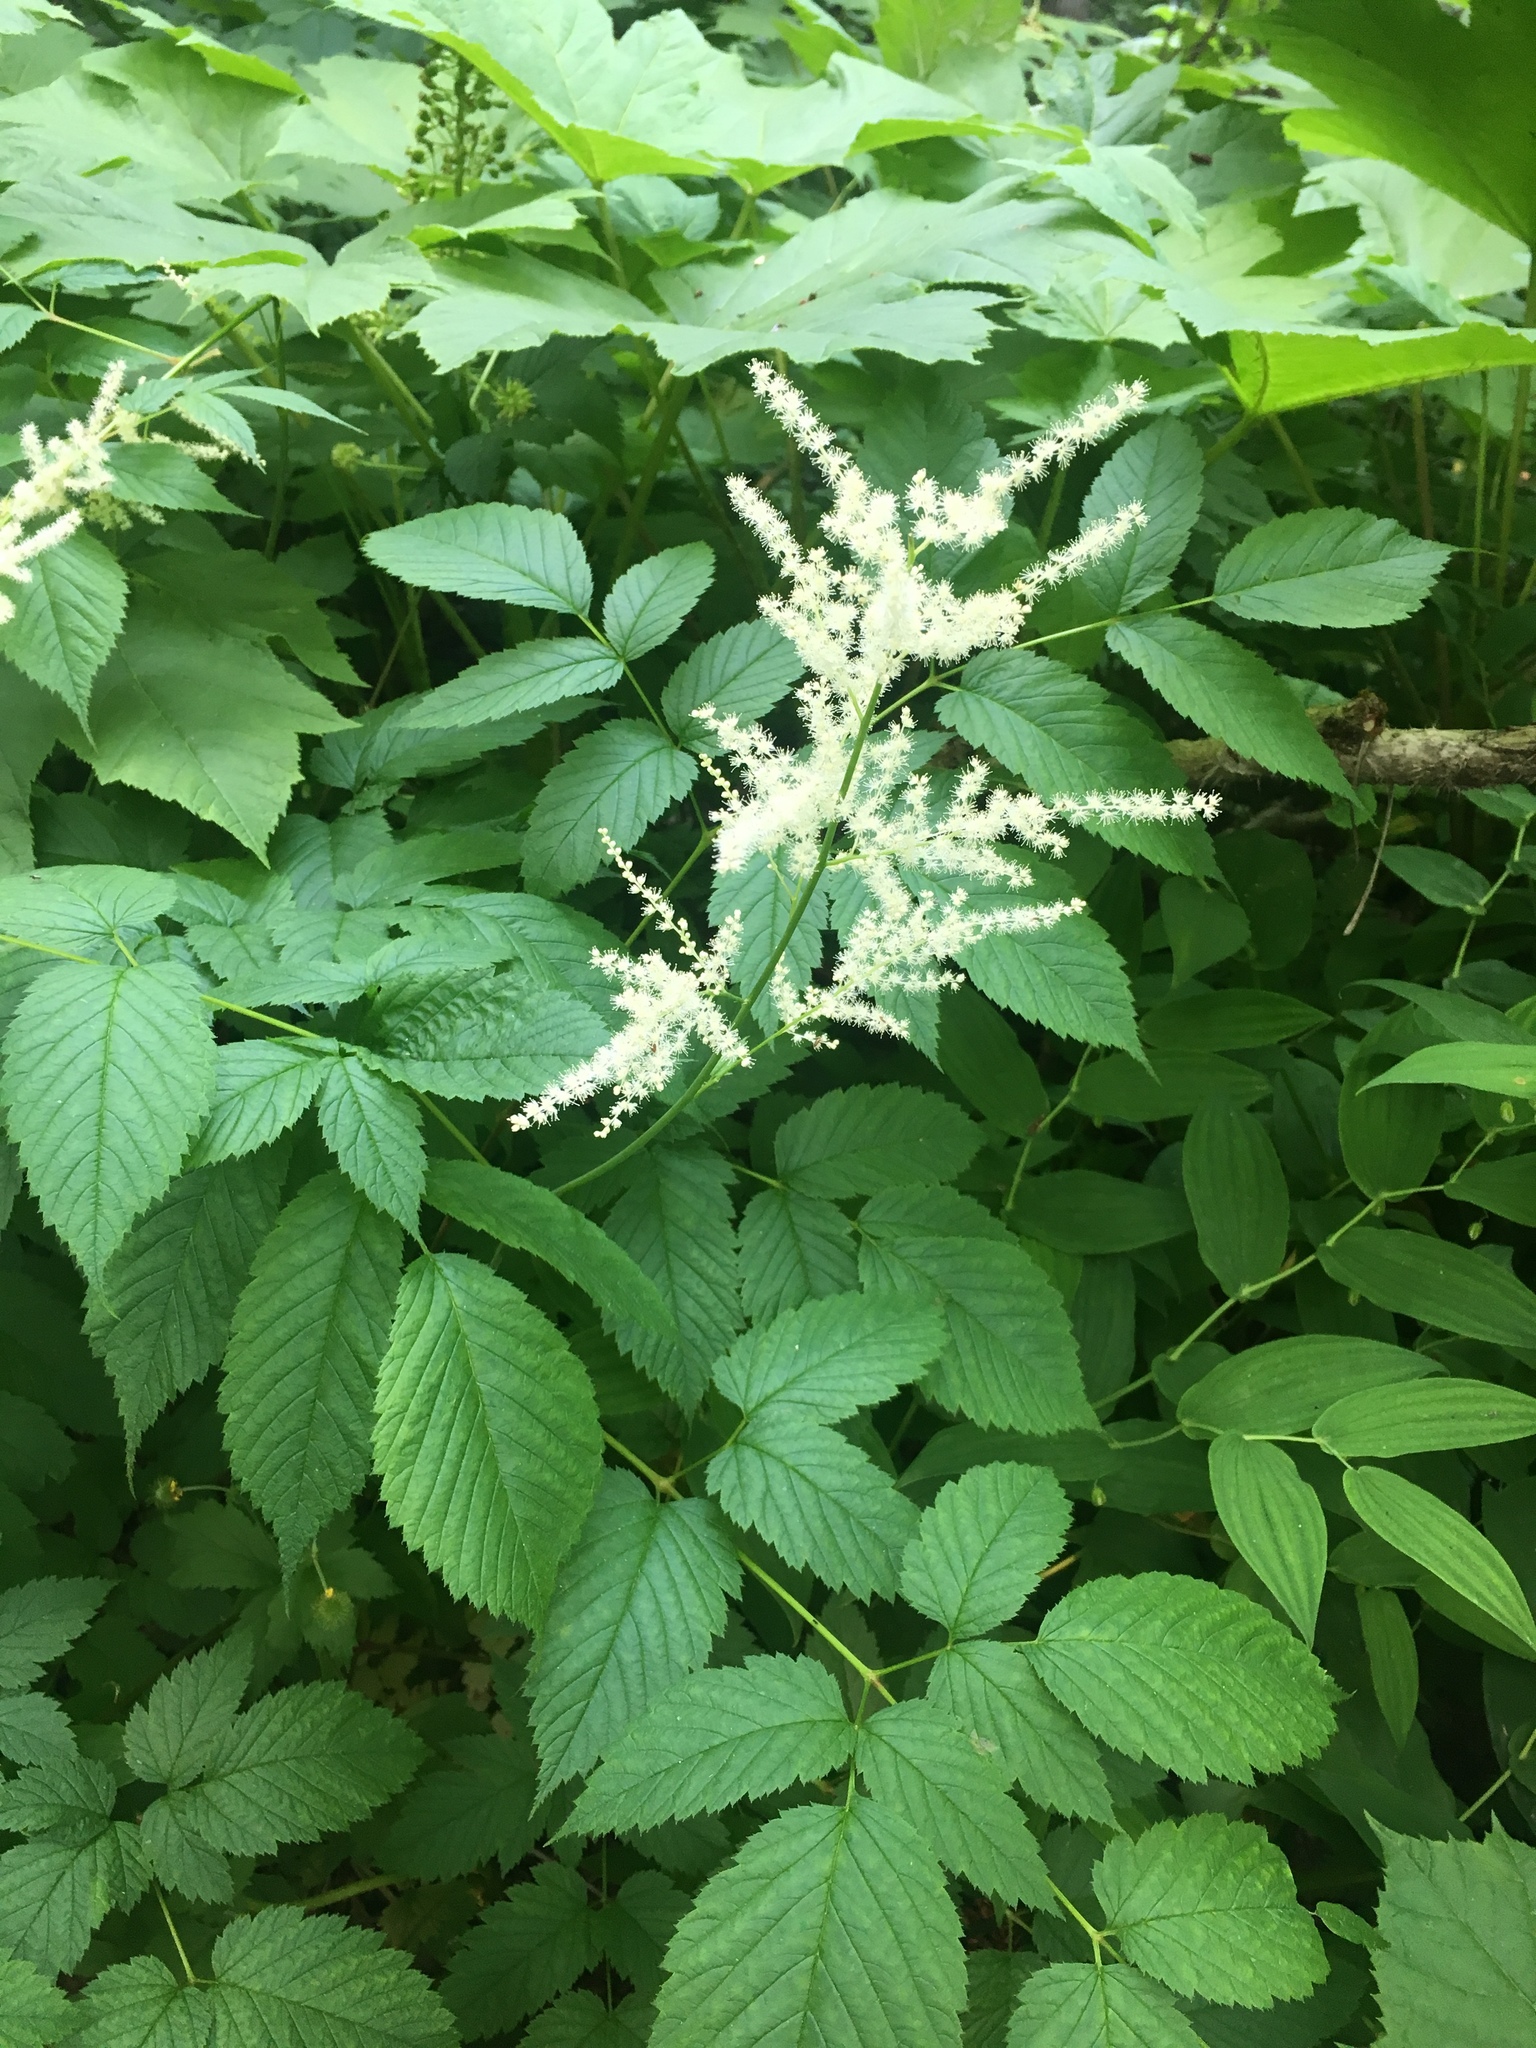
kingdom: Plantae
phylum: Tracheophyta
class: Magnoliopsida
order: Rosales
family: Rosaceae
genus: Aruncus
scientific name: Aruncus dioicus
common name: Buck's-beard
